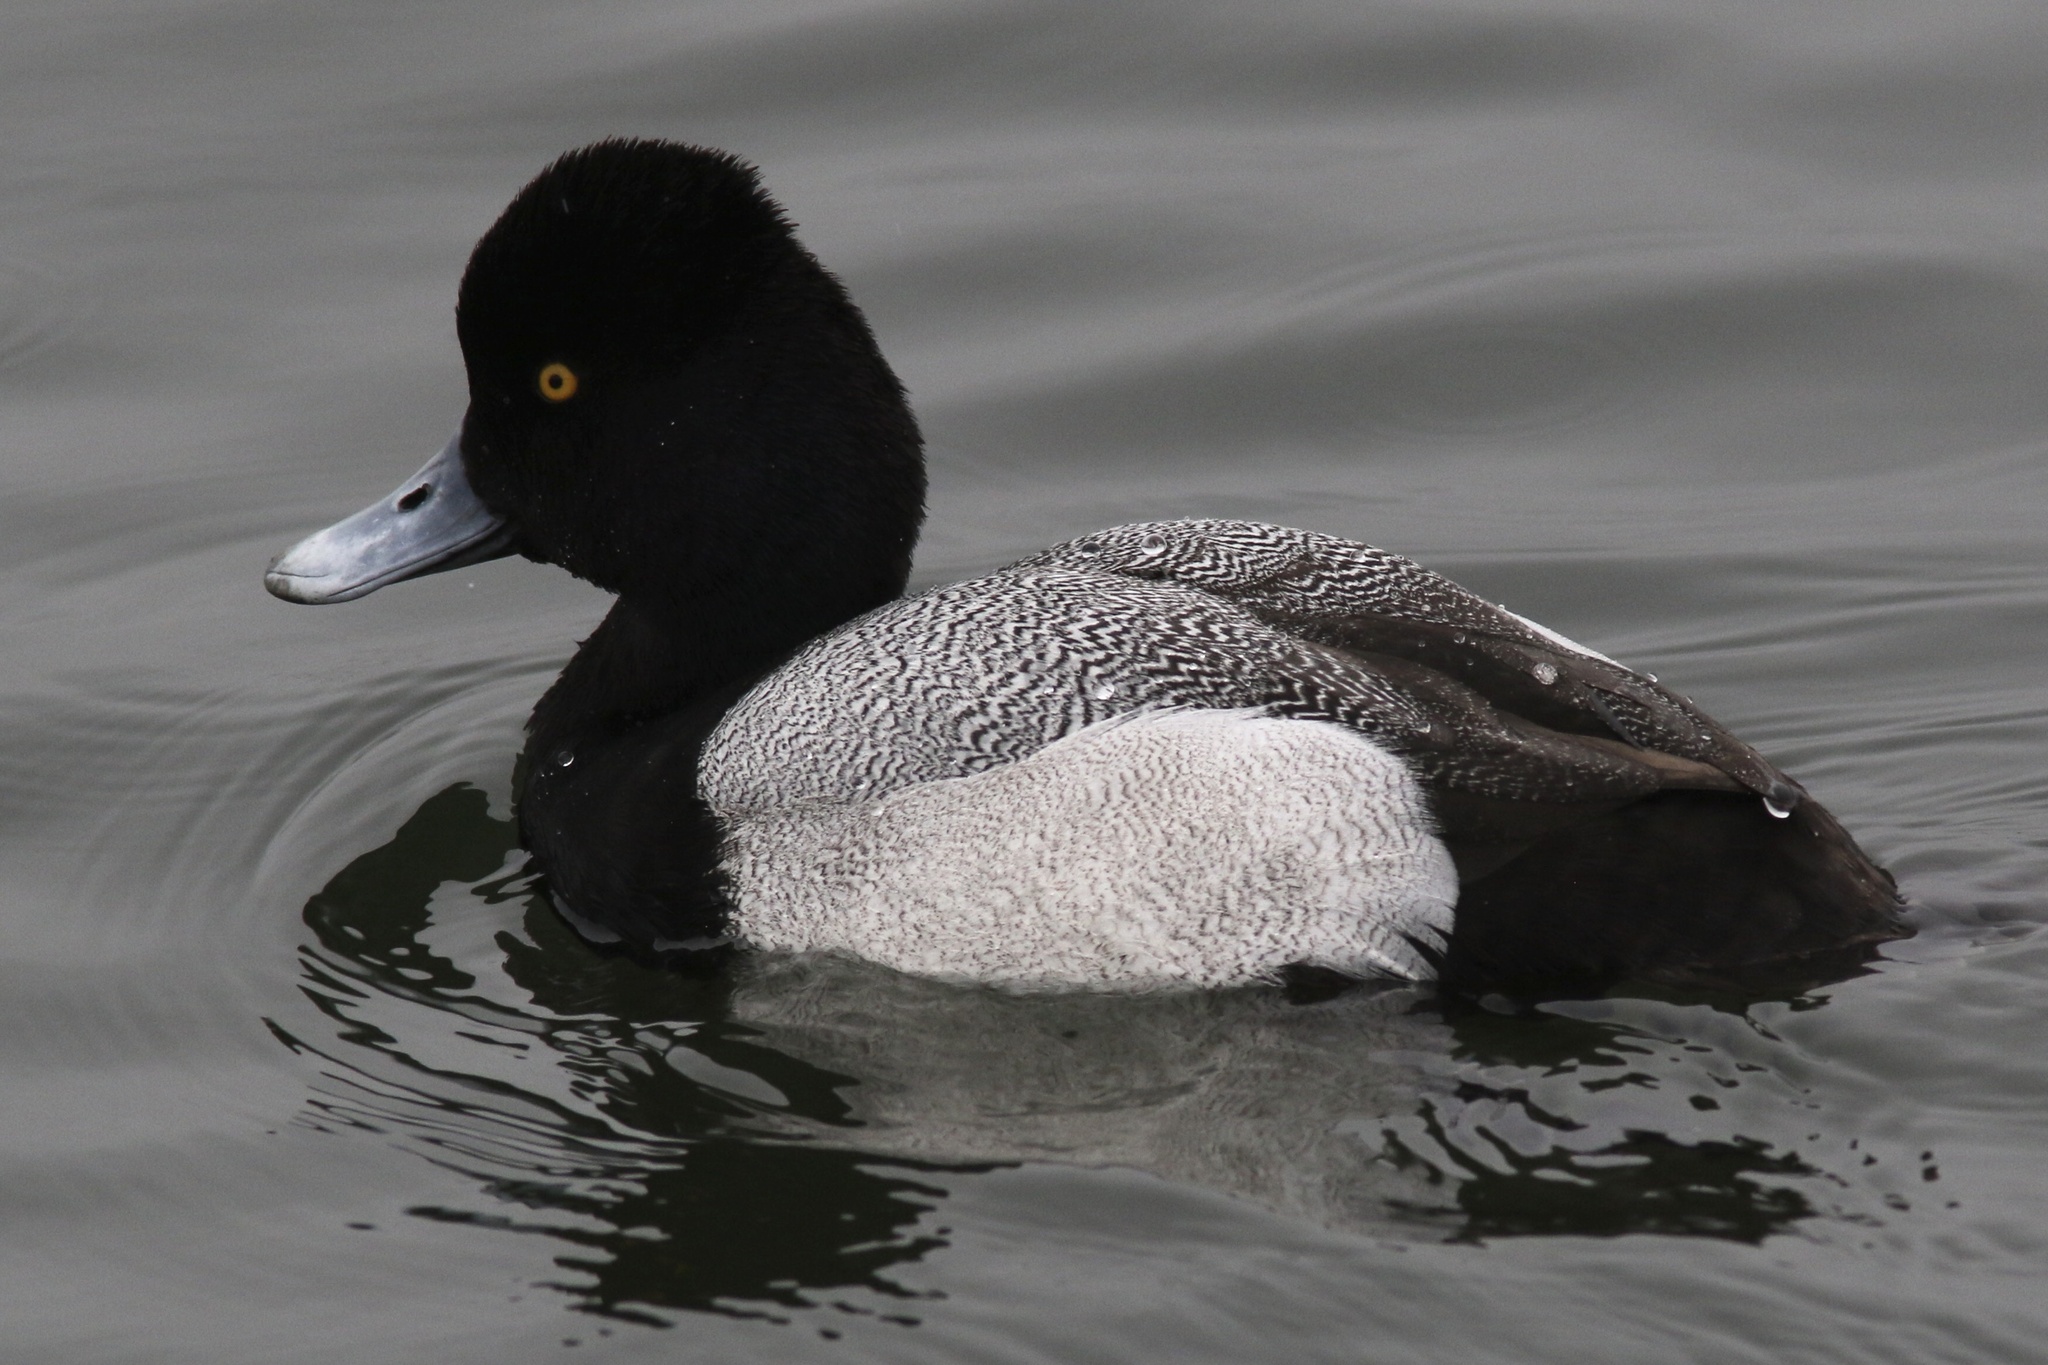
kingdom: Animalia
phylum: Chordata
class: Aves
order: Anseriformes
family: Anatidae
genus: Aythya
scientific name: Aythya affinis
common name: Lesser scaup
